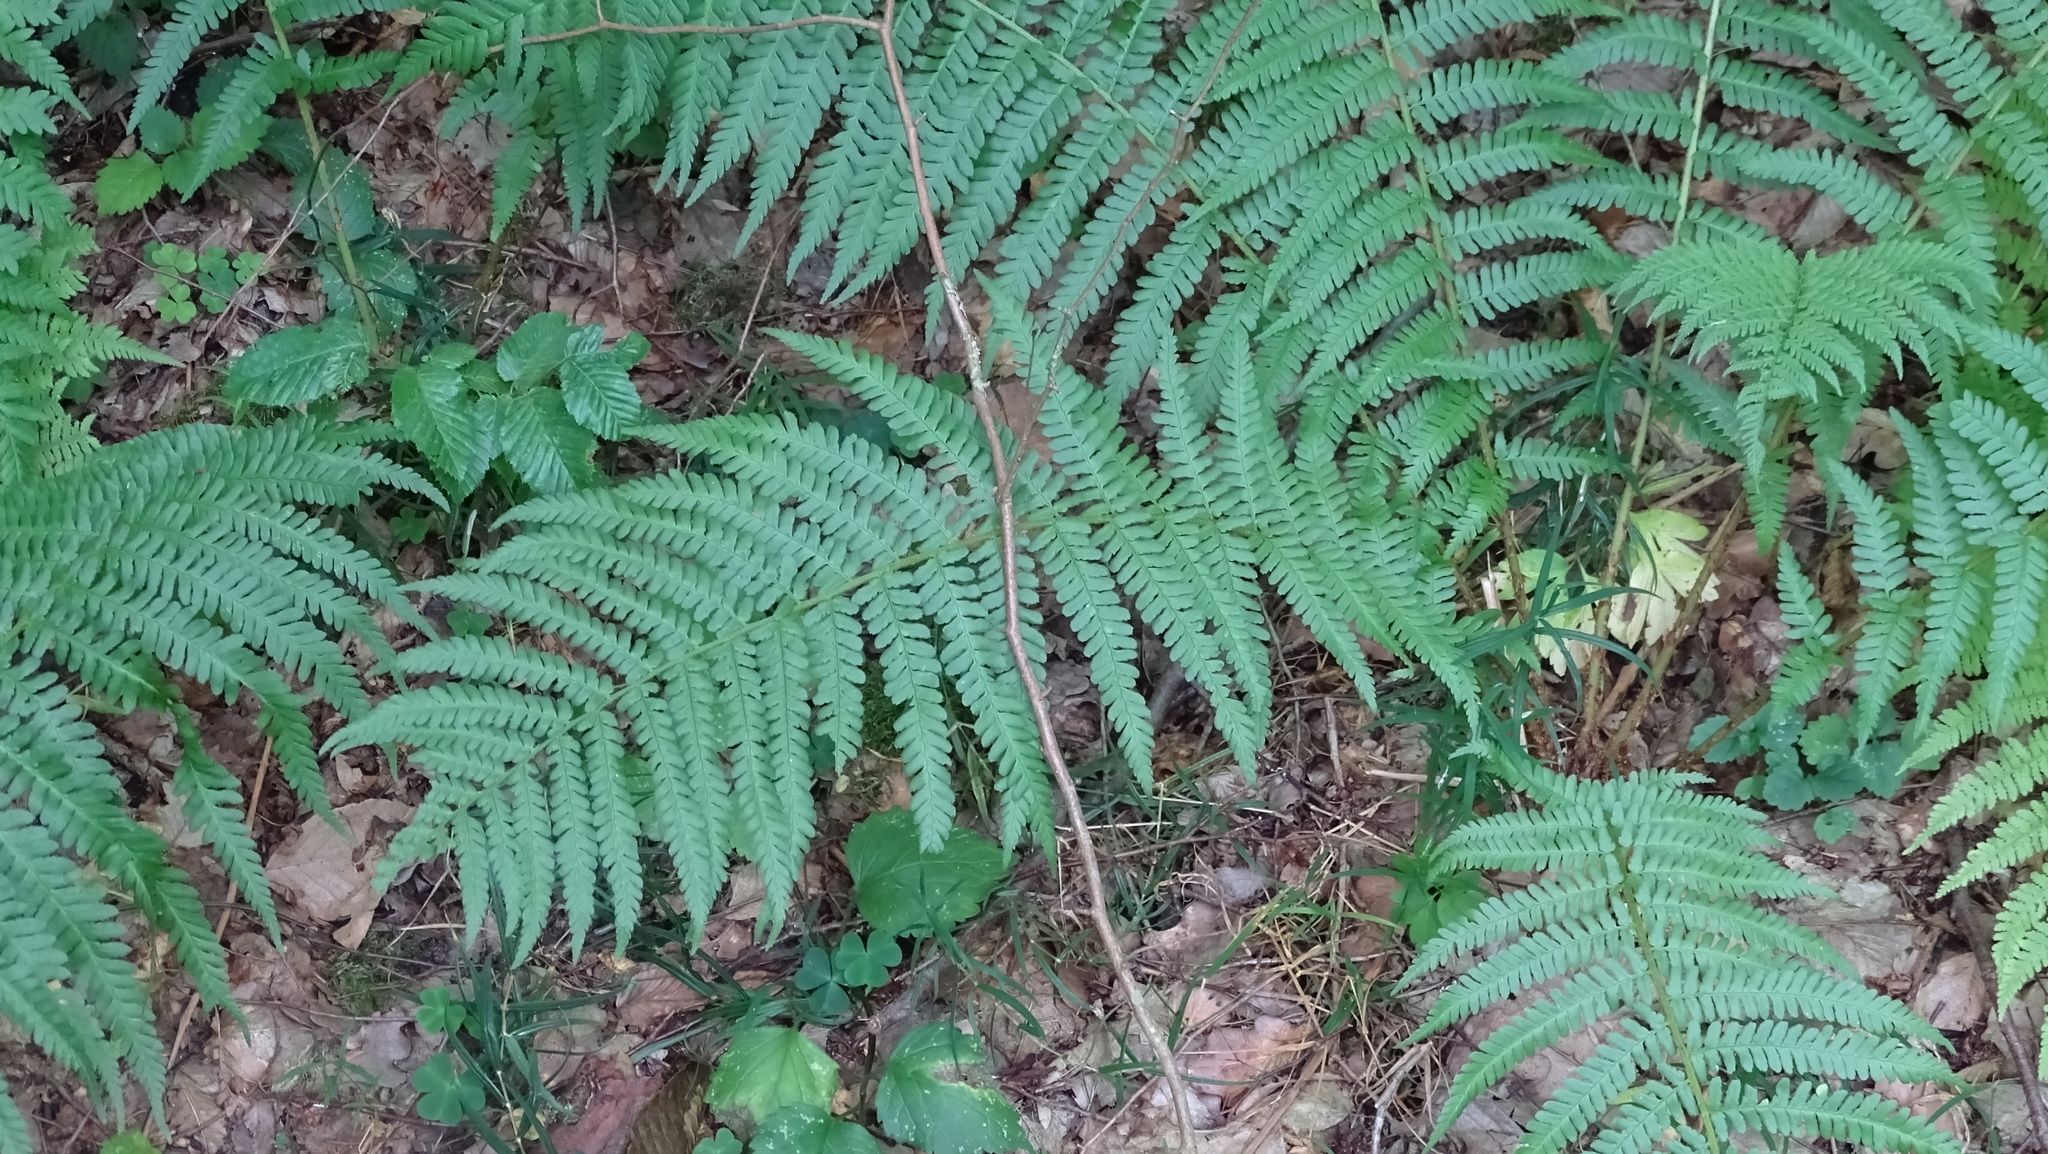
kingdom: Plantae
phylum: Tracheophyta
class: Polypodiopsida
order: Polypodiales
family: Dryopteridaceae
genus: Dryopteris
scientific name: Dryopteris filix-mas
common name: Male fern
